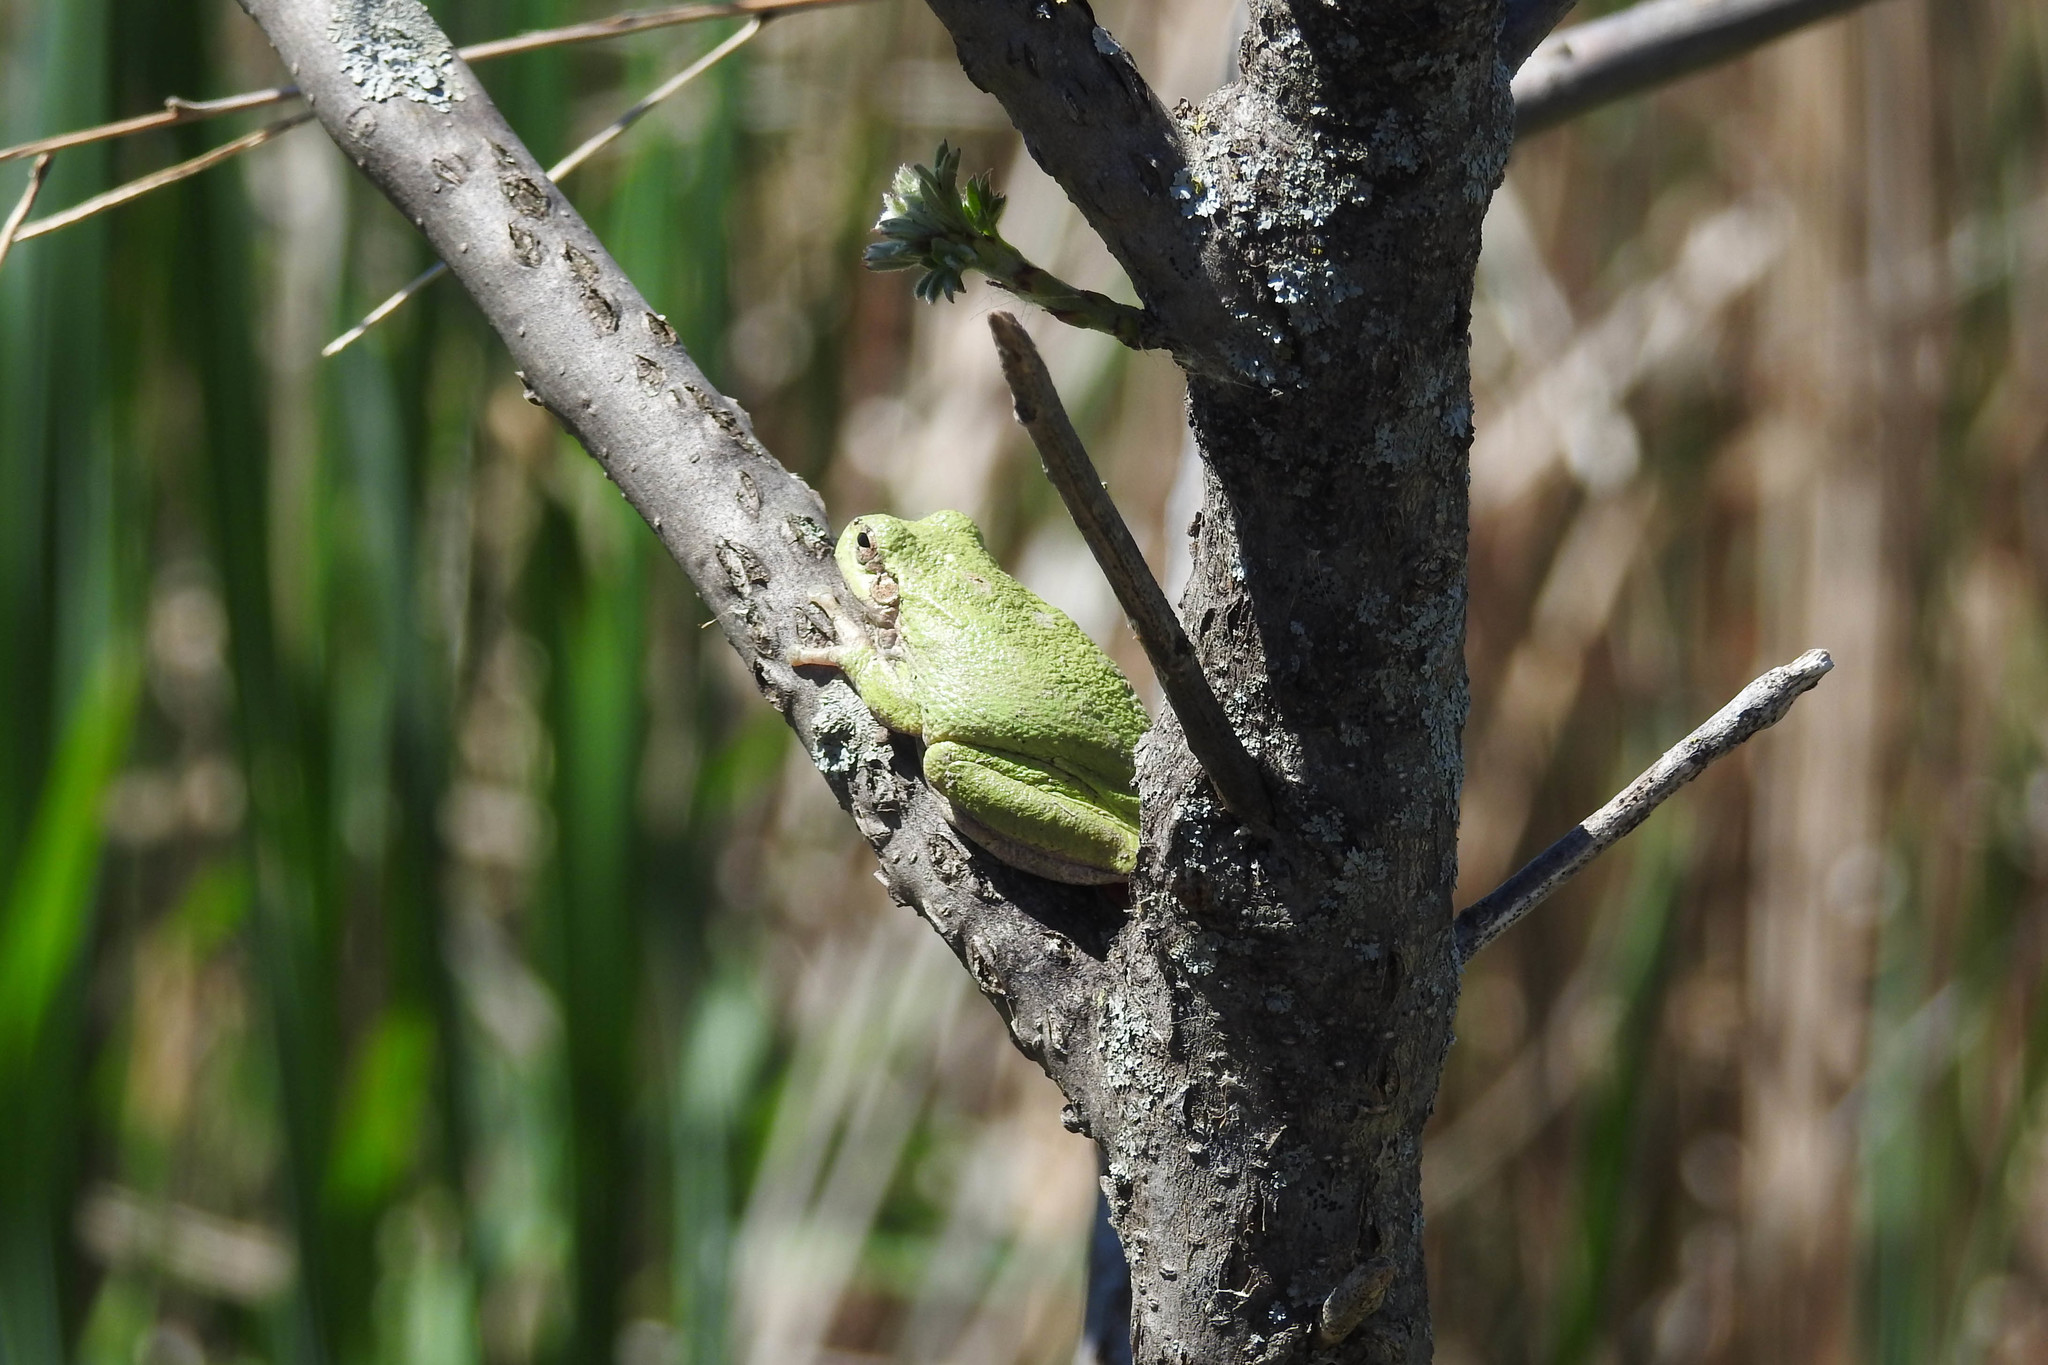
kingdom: Animalia
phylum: Chordata
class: Amphibia
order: Anura
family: Hylidae
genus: Hyla
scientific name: Hyla
